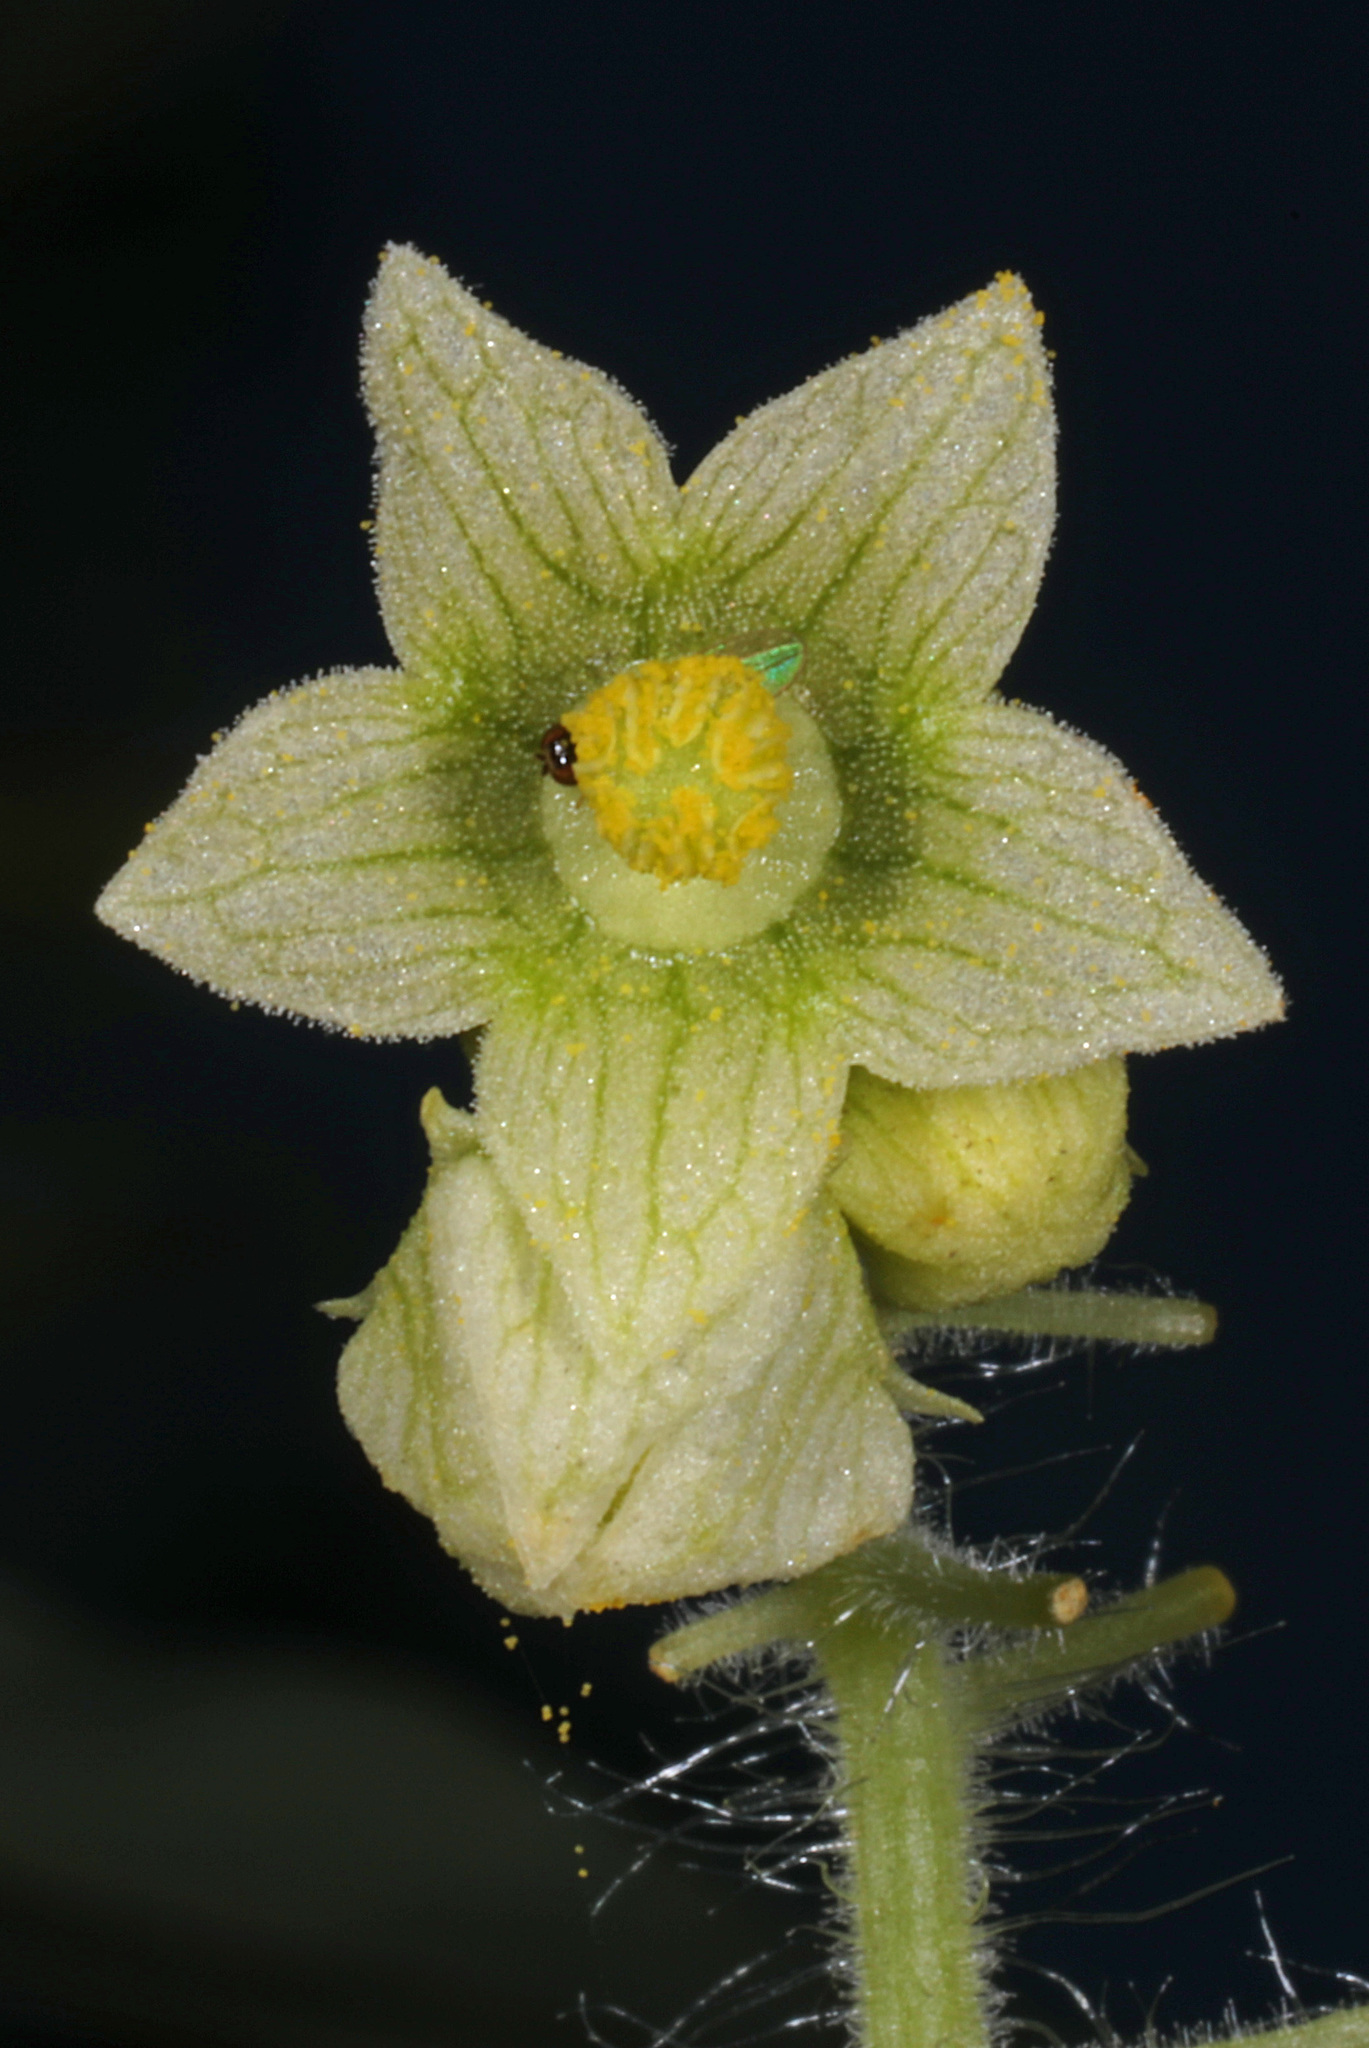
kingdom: Plantae
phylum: Tracheophyta
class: Magnoliopsida
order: Cucurbitales
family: Cucurbitaceae
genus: Sicyos
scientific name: Sicyos angulatus
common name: Angled burr cucumber
